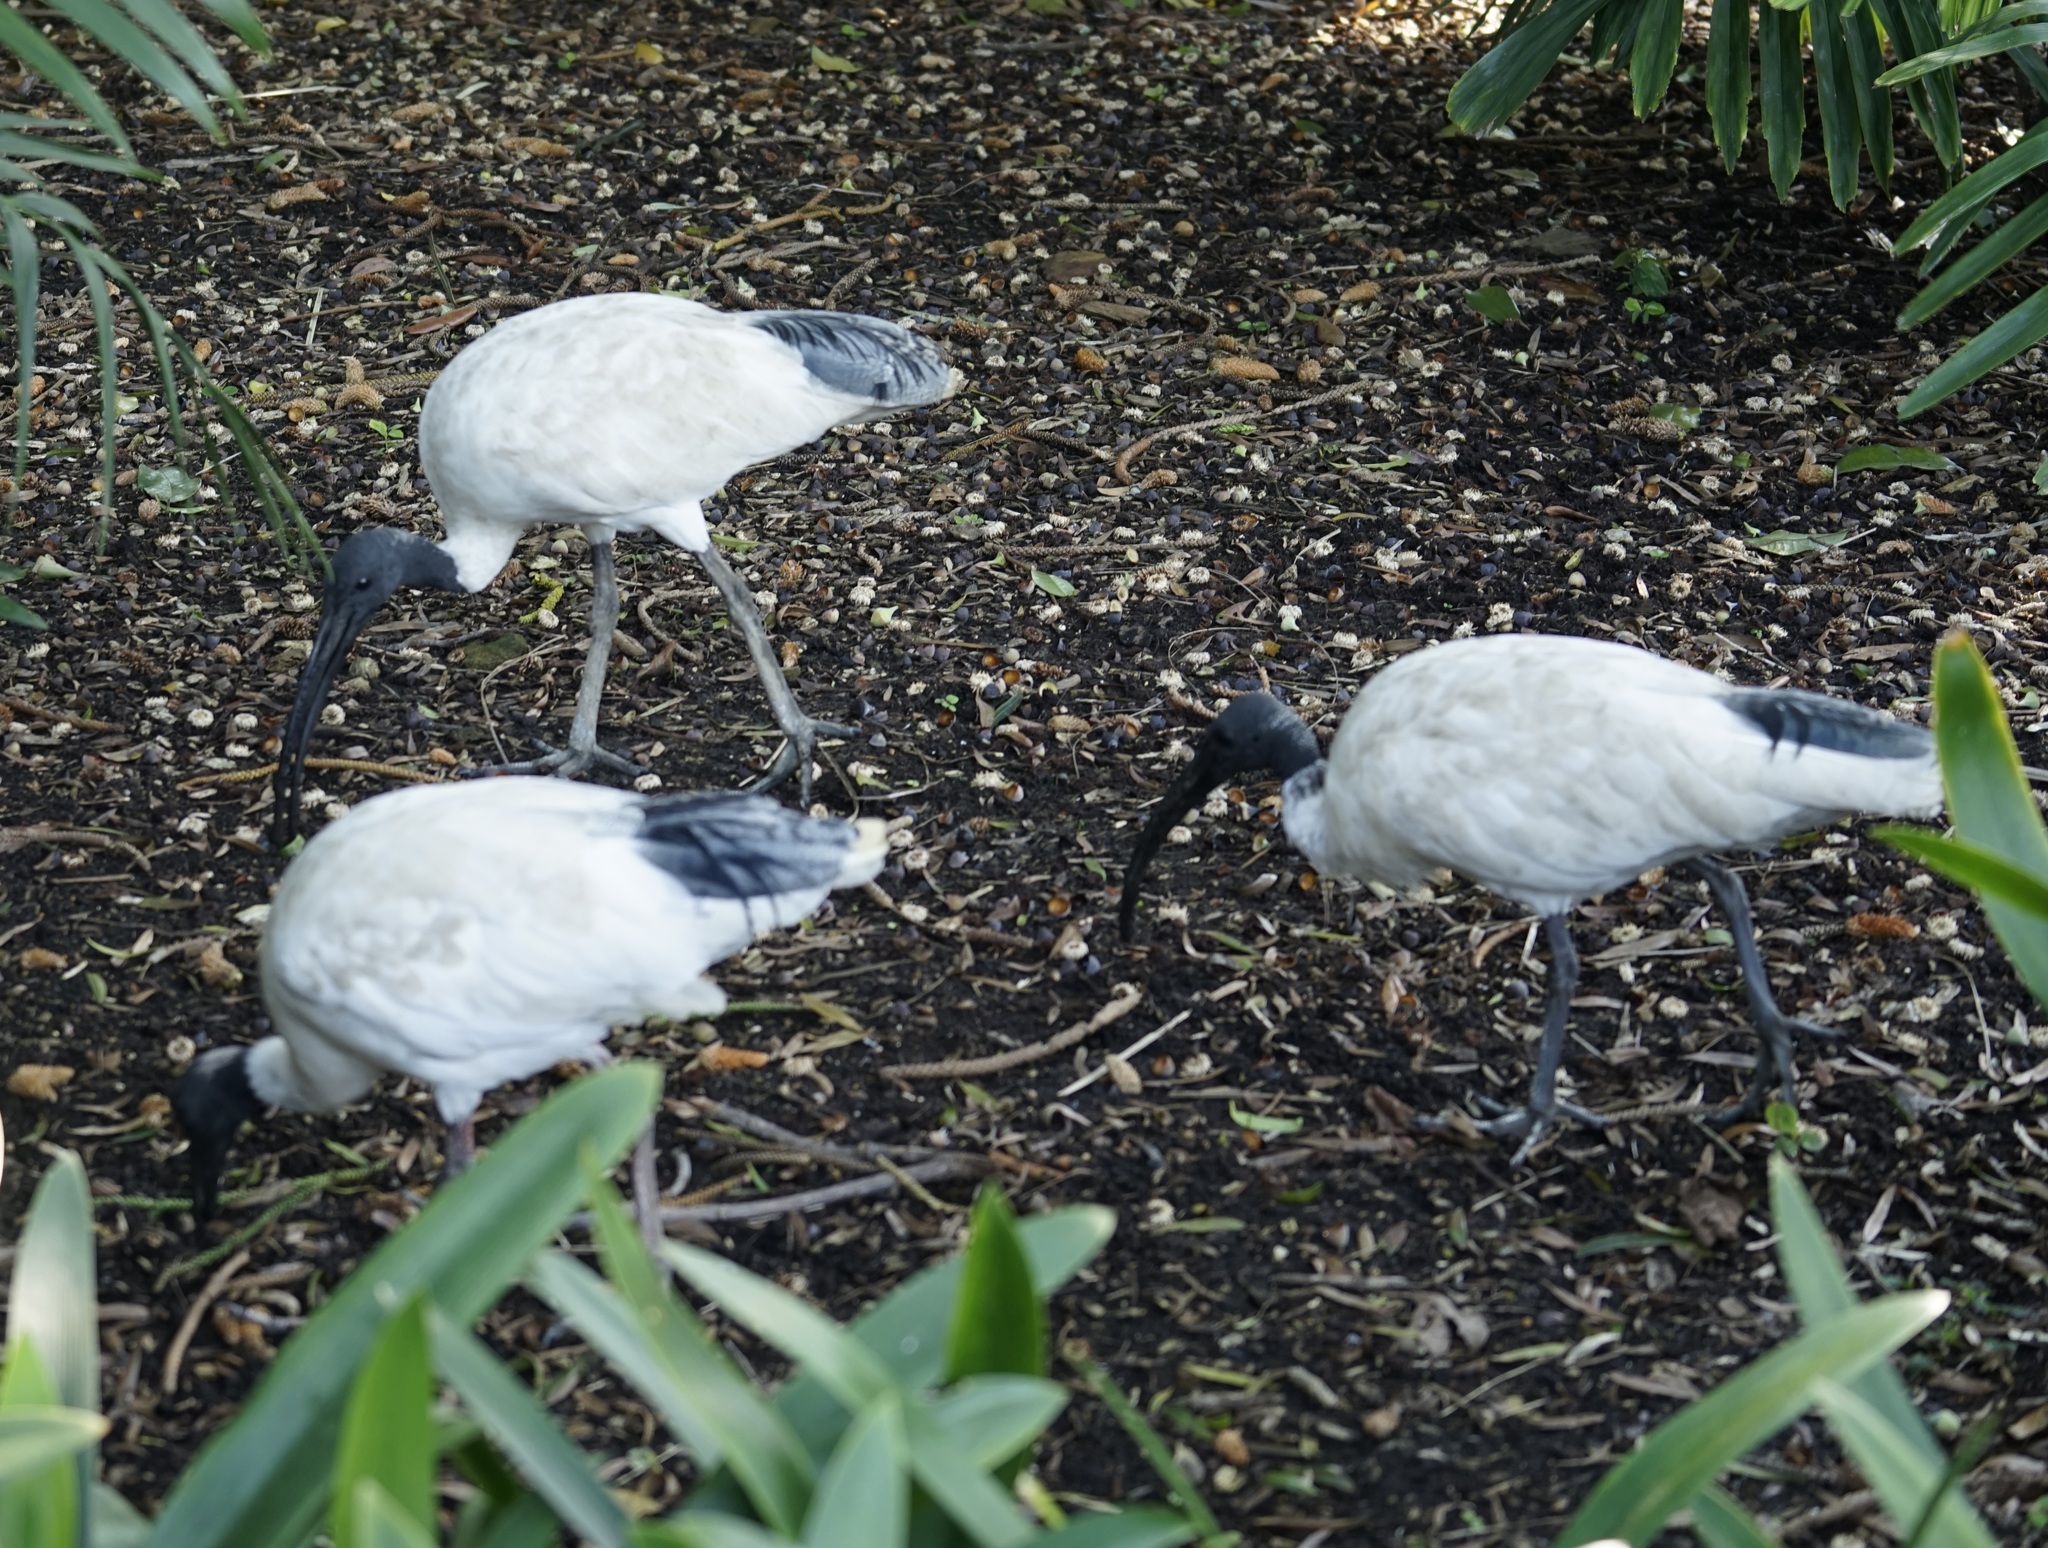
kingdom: Animalia
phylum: Chordata
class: Aves
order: Pelecaniformes
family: Threskiornithidae
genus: Threskiornis
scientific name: Threskiornis molucca
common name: Australian white ibis
